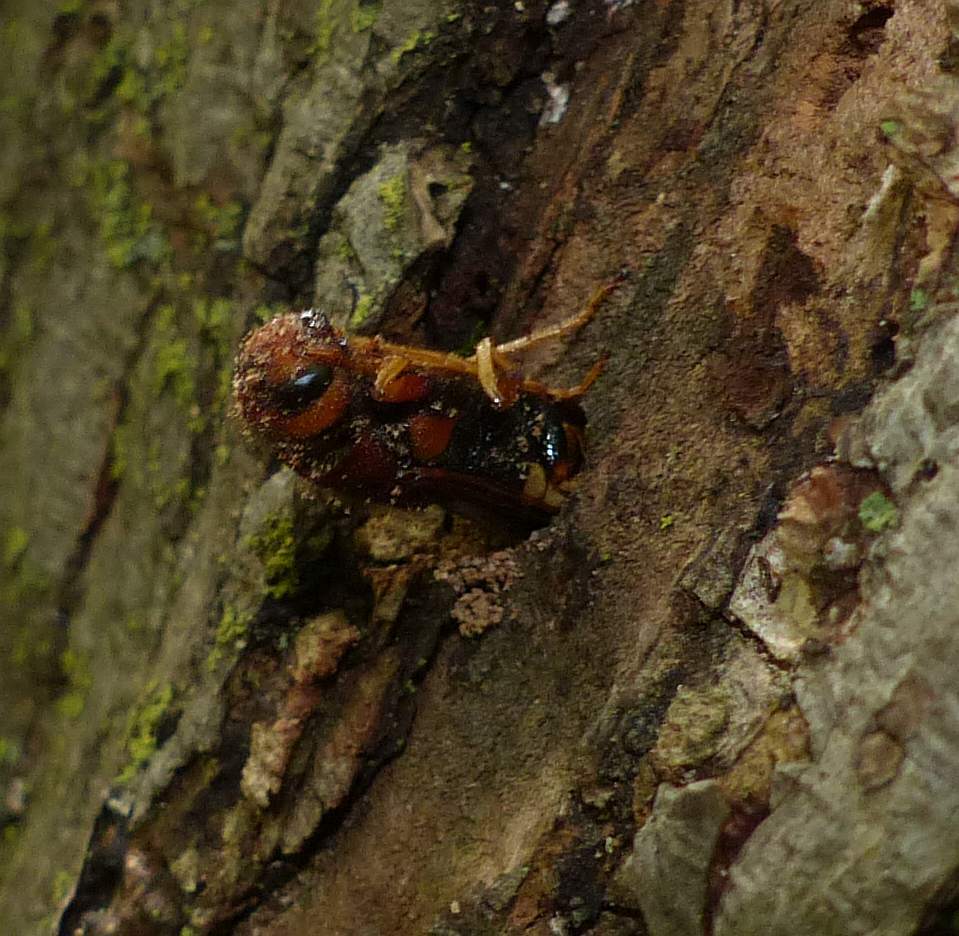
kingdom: Animalia
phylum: Arthropoda
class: Insecta
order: Hymenoptera
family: Siricidae
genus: Tremex
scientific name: Tremex columba
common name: Wasp
